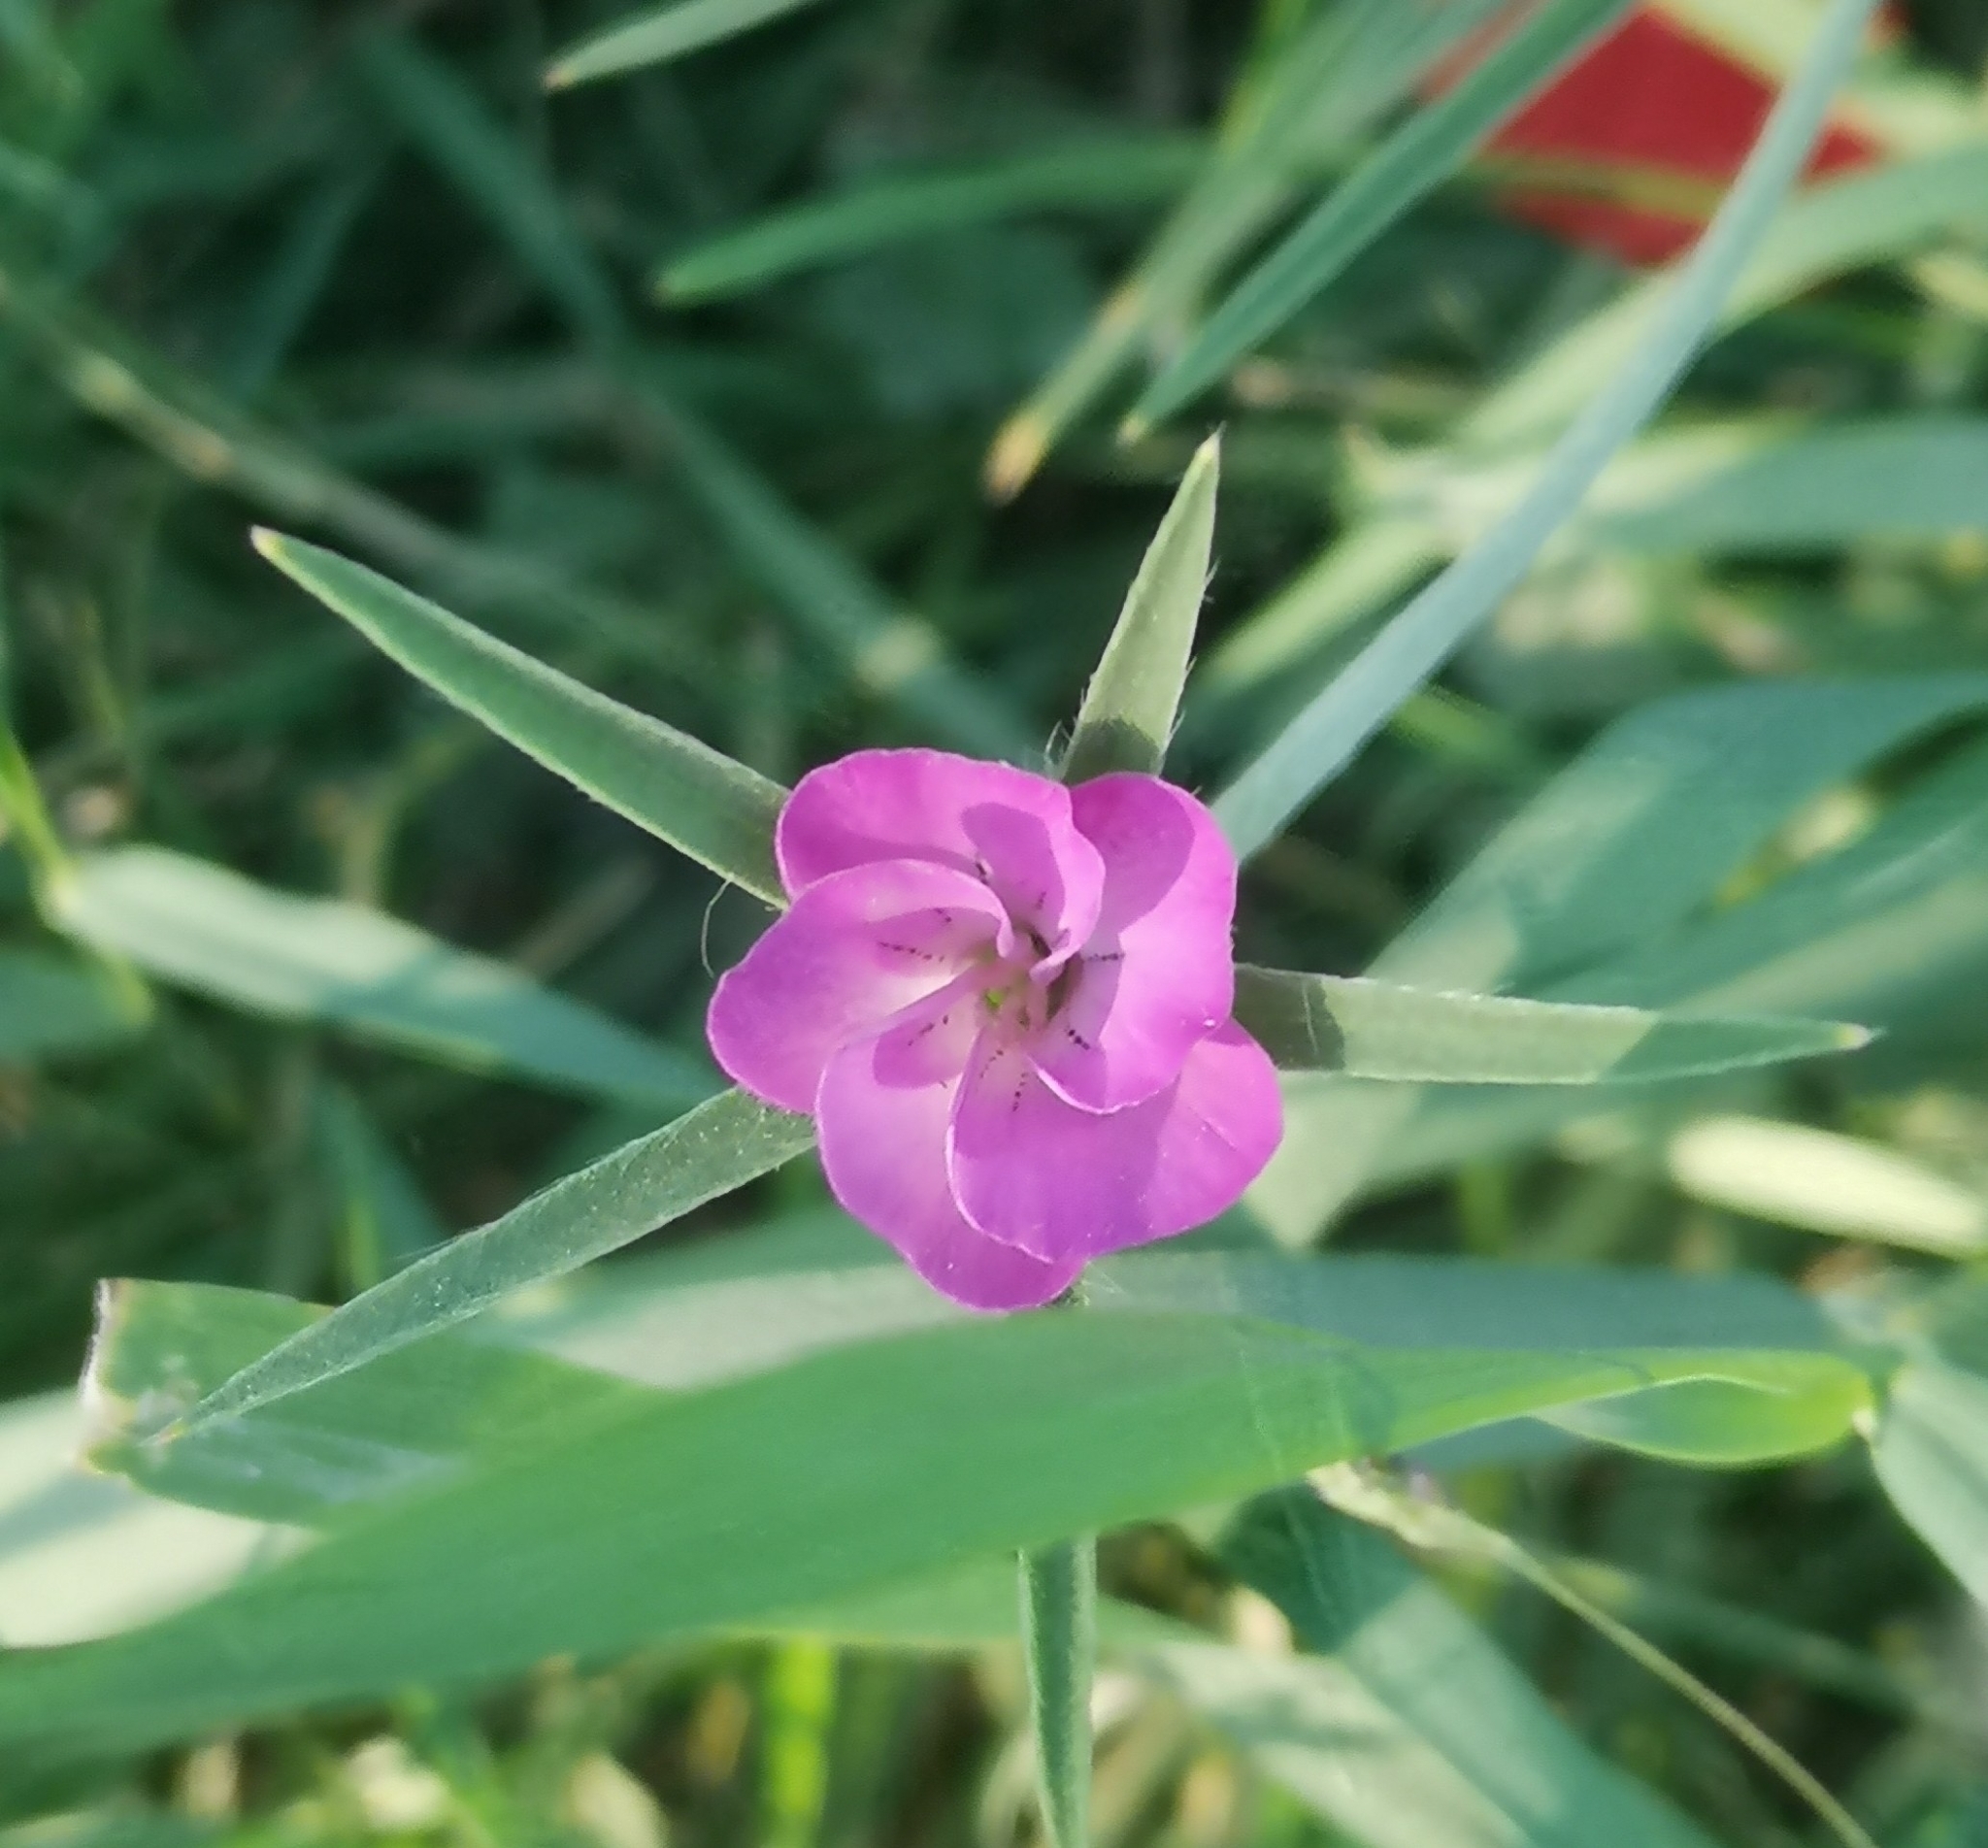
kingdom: Plantae
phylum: Tracheophyta
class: Magnoliopsida
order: Caryophyllales
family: Caryophyllaceae
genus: Agrostemma
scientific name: Agrostemma githago
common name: Common corncockle
